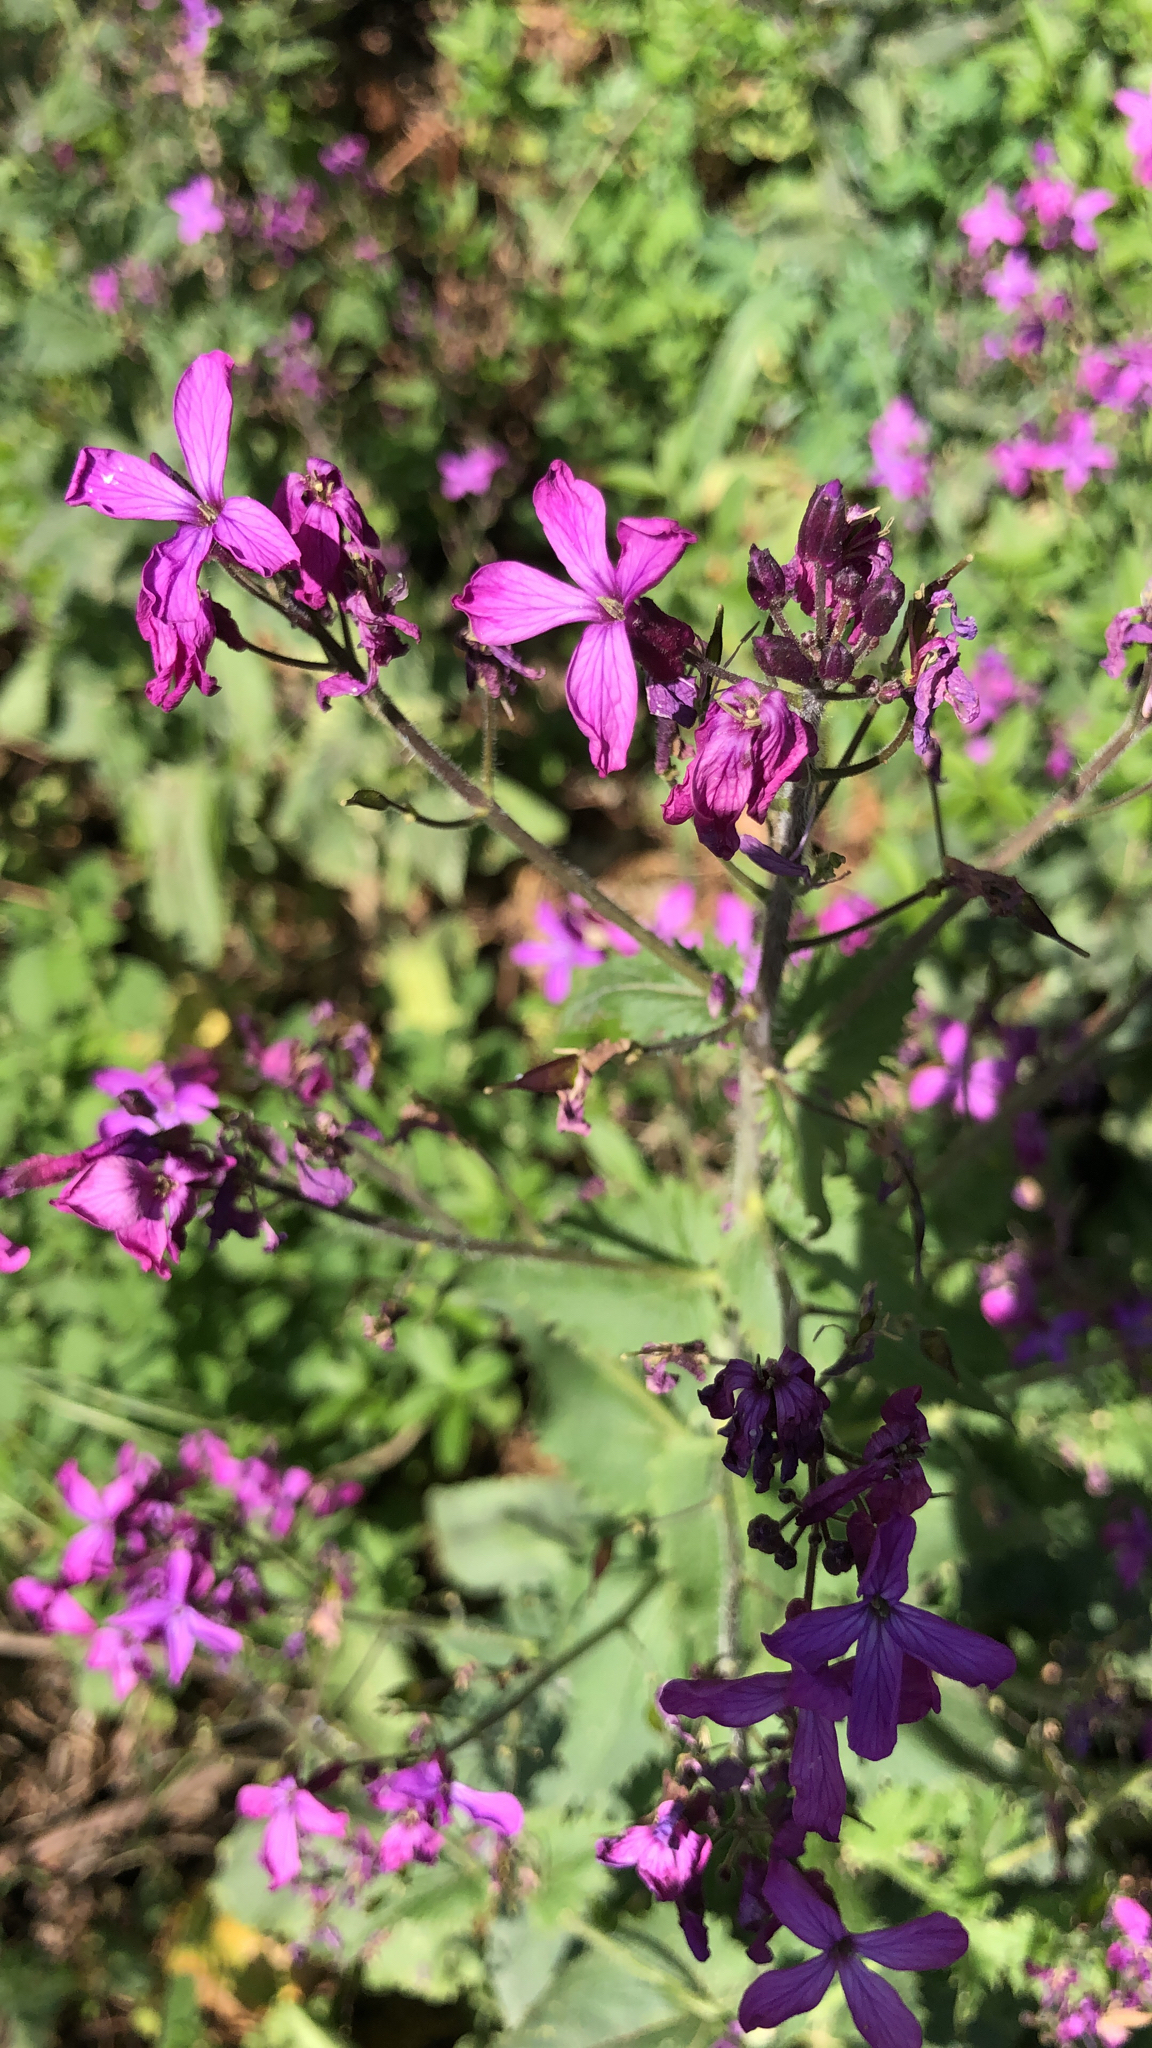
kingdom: Plantae
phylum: Tracheophyta
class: Magnoliopsida
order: Brassicales
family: Brassicaceae
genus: Lunaria
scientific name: Lunaria annua
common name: Honesty
